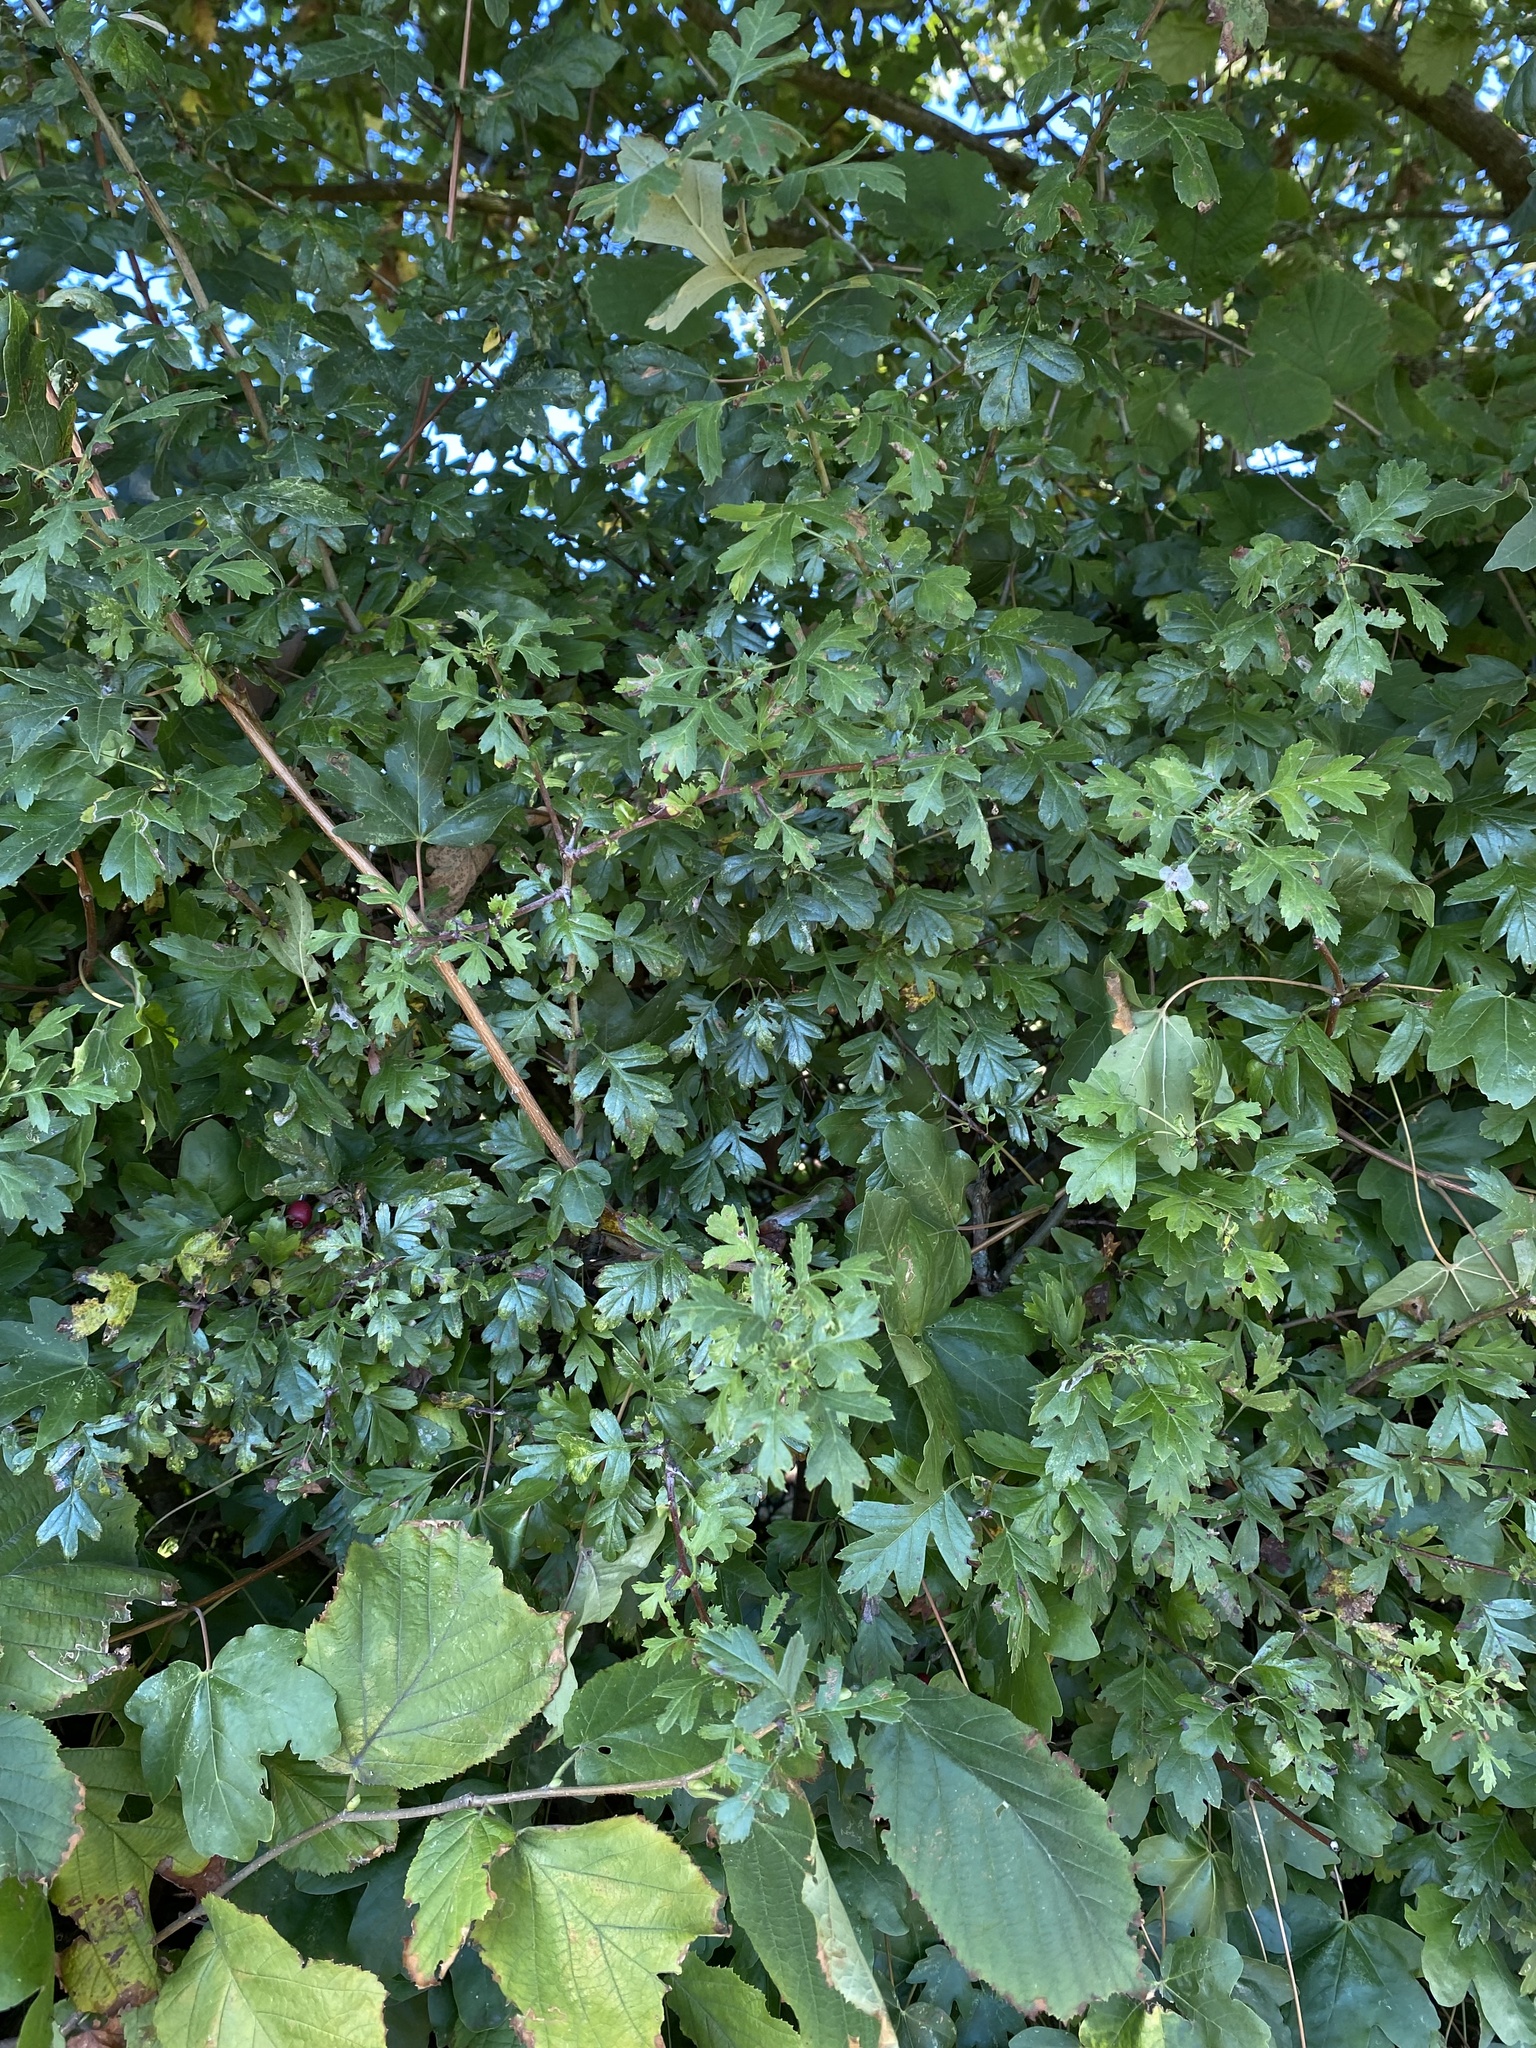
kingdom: Plantae
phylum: Tracheophyta
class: Magnoliopsida
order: Rosales
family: Rosaceae
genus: Crataegus
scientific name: Crataegus monogyna
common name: Hawthorn
